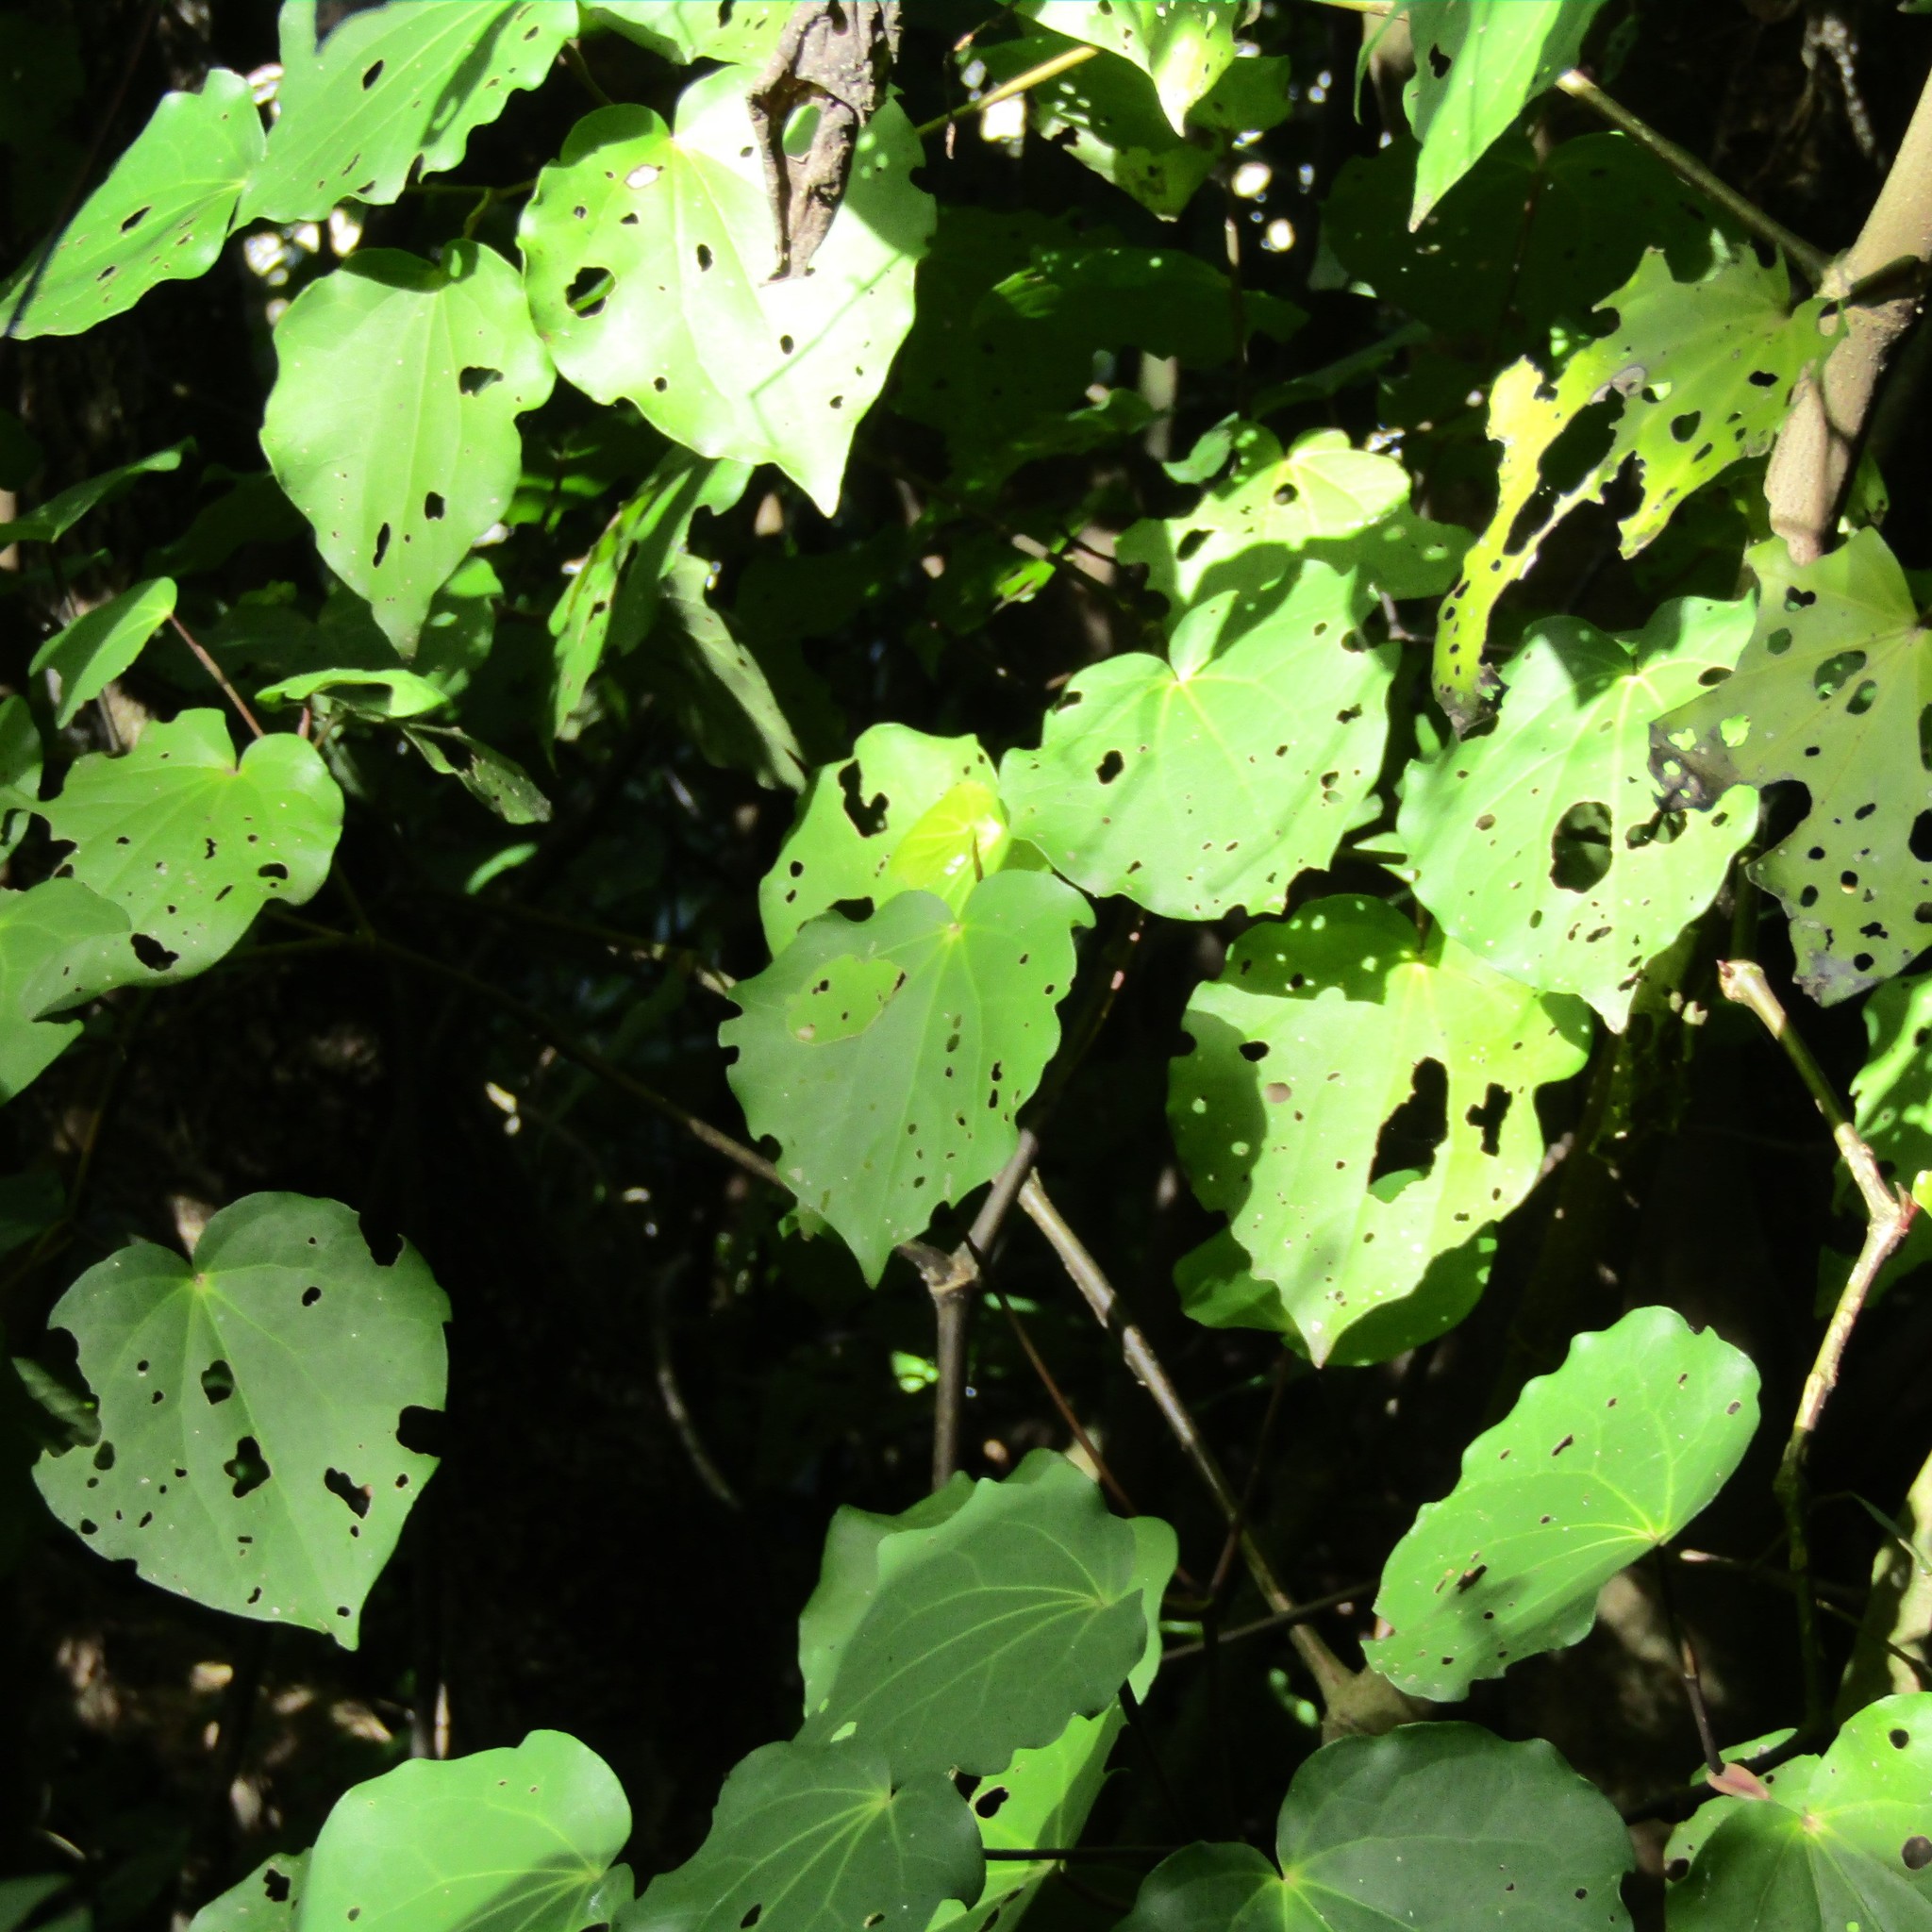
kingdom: Plantae
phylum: Tracheophyta
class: Magnoliopsida
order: Piperales
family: Piperaceae
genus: Macropiper
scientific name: Macropiper excelsum
